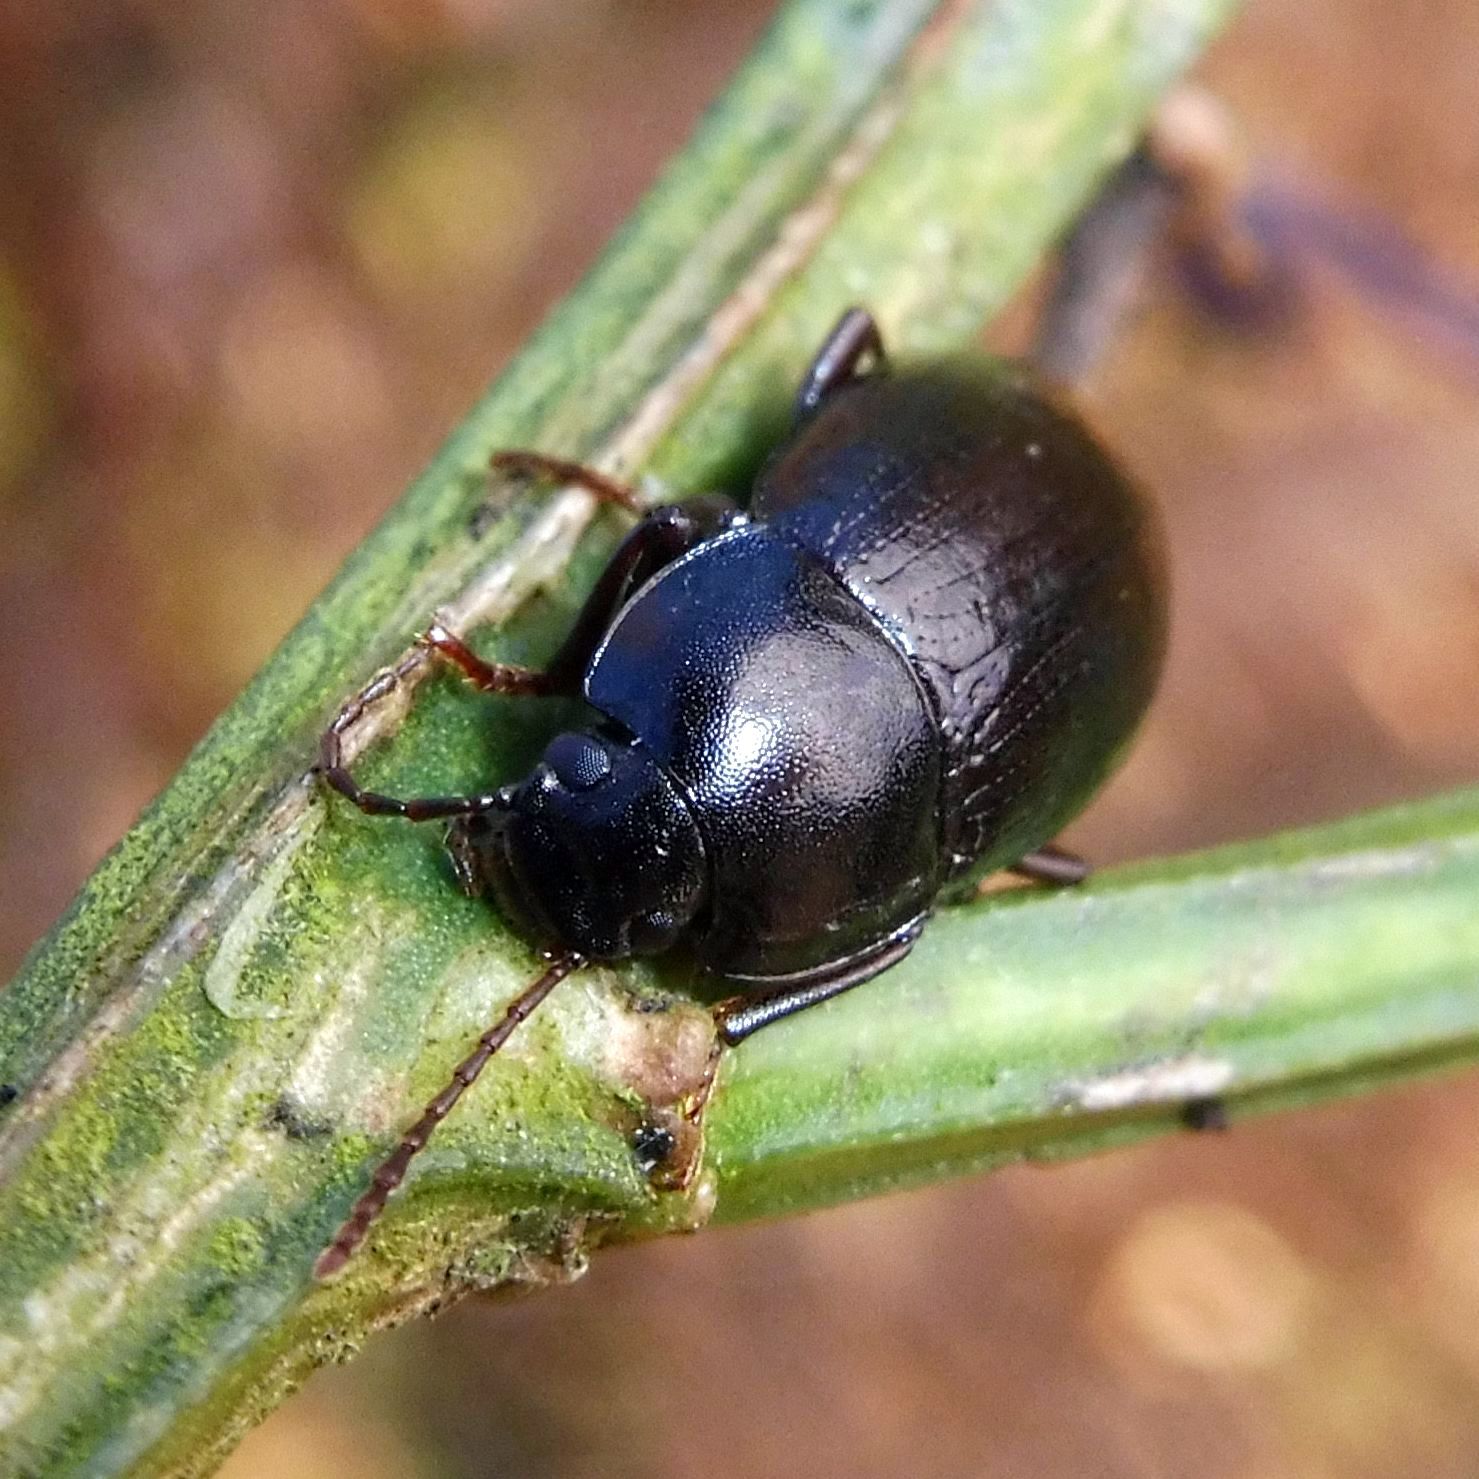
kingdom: Animalia
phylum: Arthropoda
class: Insecta
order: Coleoptera
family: Tenebrionidae
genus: Nalassus
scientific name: Nalassus laevioctostriatus
